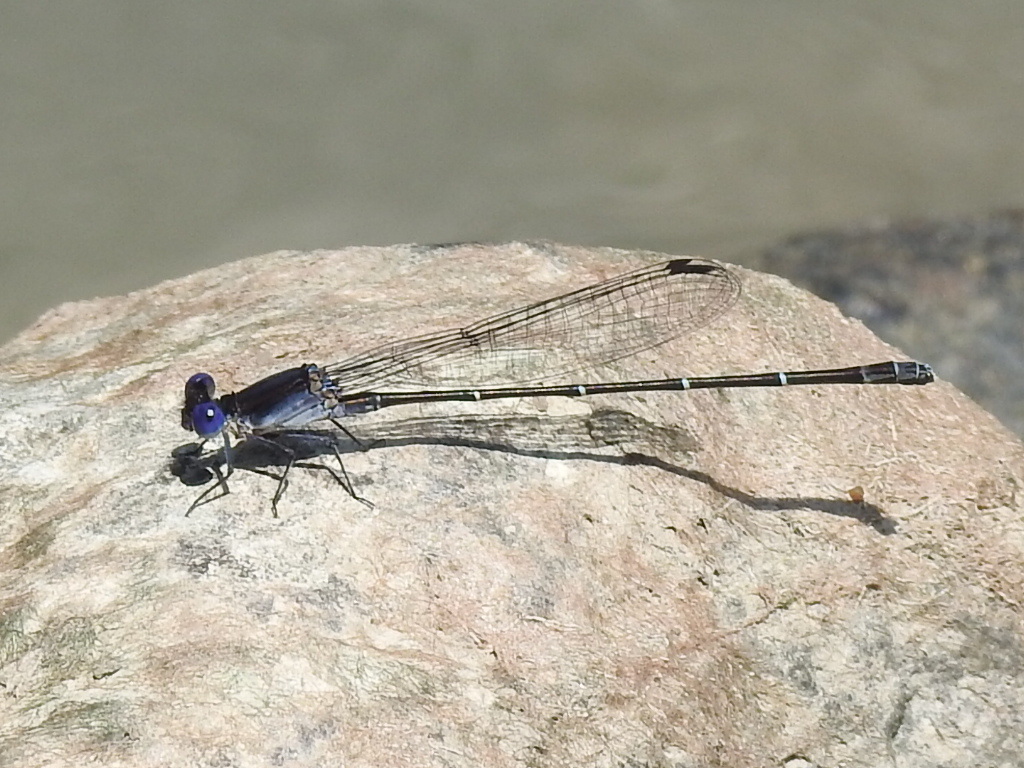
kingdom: Animalia
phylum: Arthropoda
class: Insecta
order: Odonata
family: Coenagrionidae
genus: Argia
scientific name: Argia translata
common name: Dusky dancer
